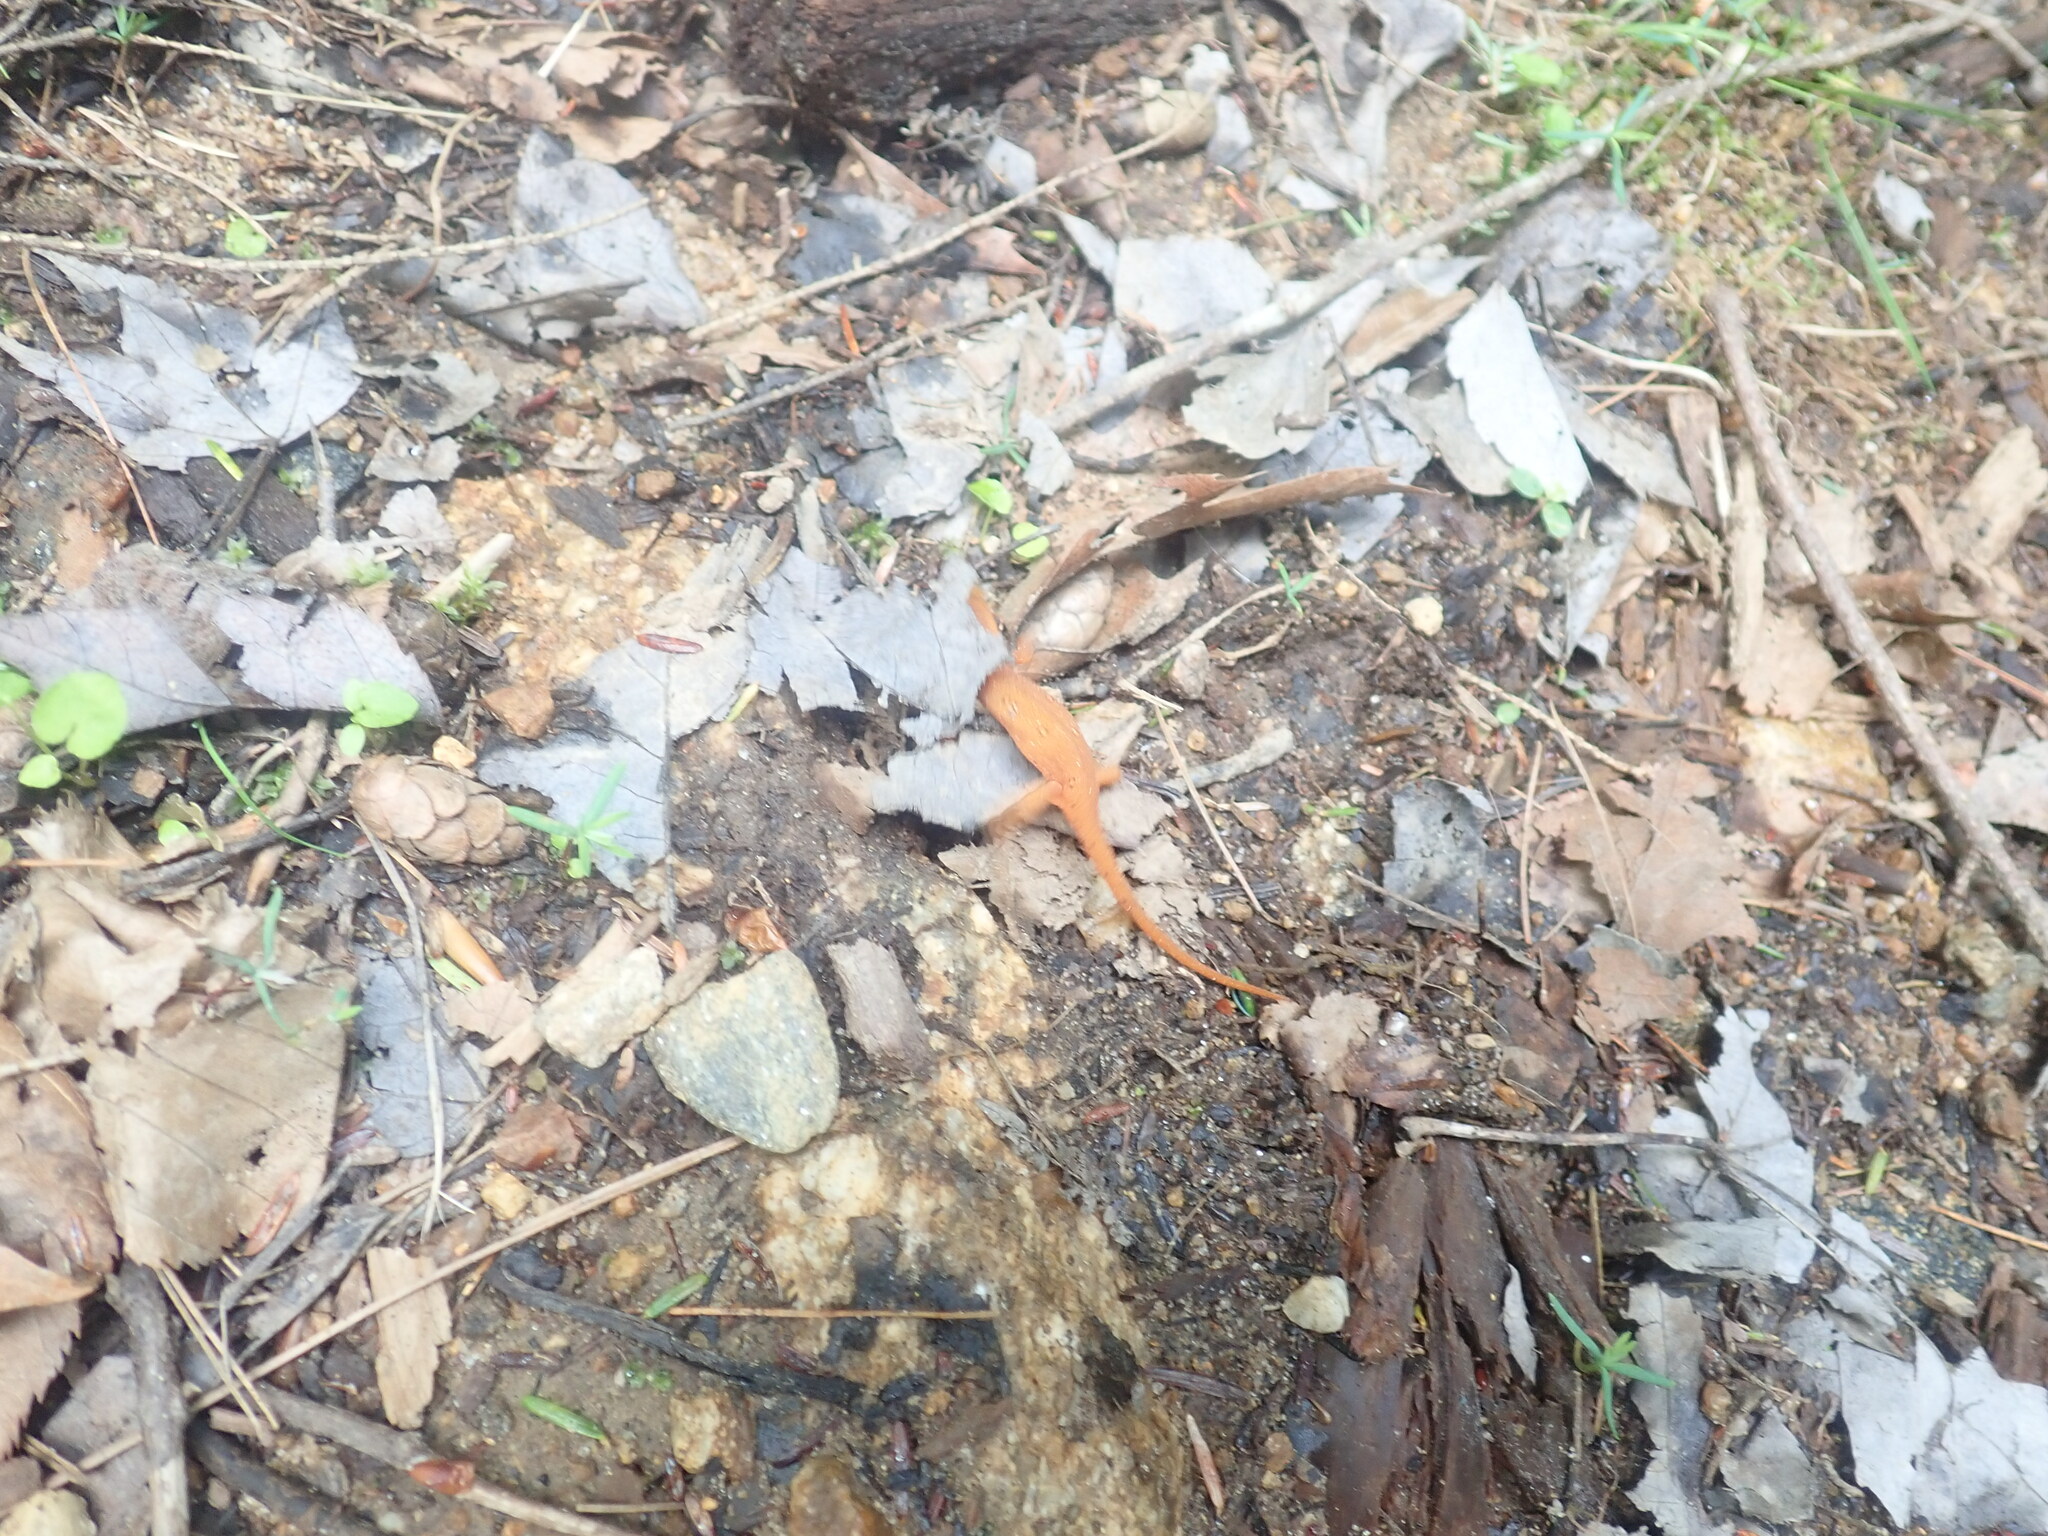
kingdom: Animalia
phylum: Chordata
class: Amphibia
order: Caudata
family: Salamandridae
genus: Notophthalmus
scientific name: Notophthalmus viridescens
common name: Eastern newt
